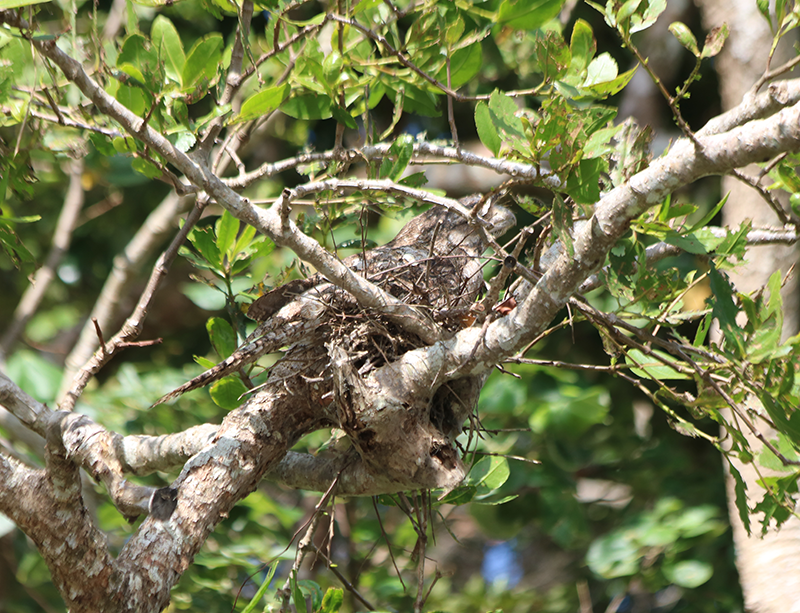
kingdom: Animalia
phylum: Chordata
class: Aves
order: Caprimulgiformes
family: Podargidae
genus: Podargus
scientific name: Podargus papuensis
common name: Papuan frogmouth
